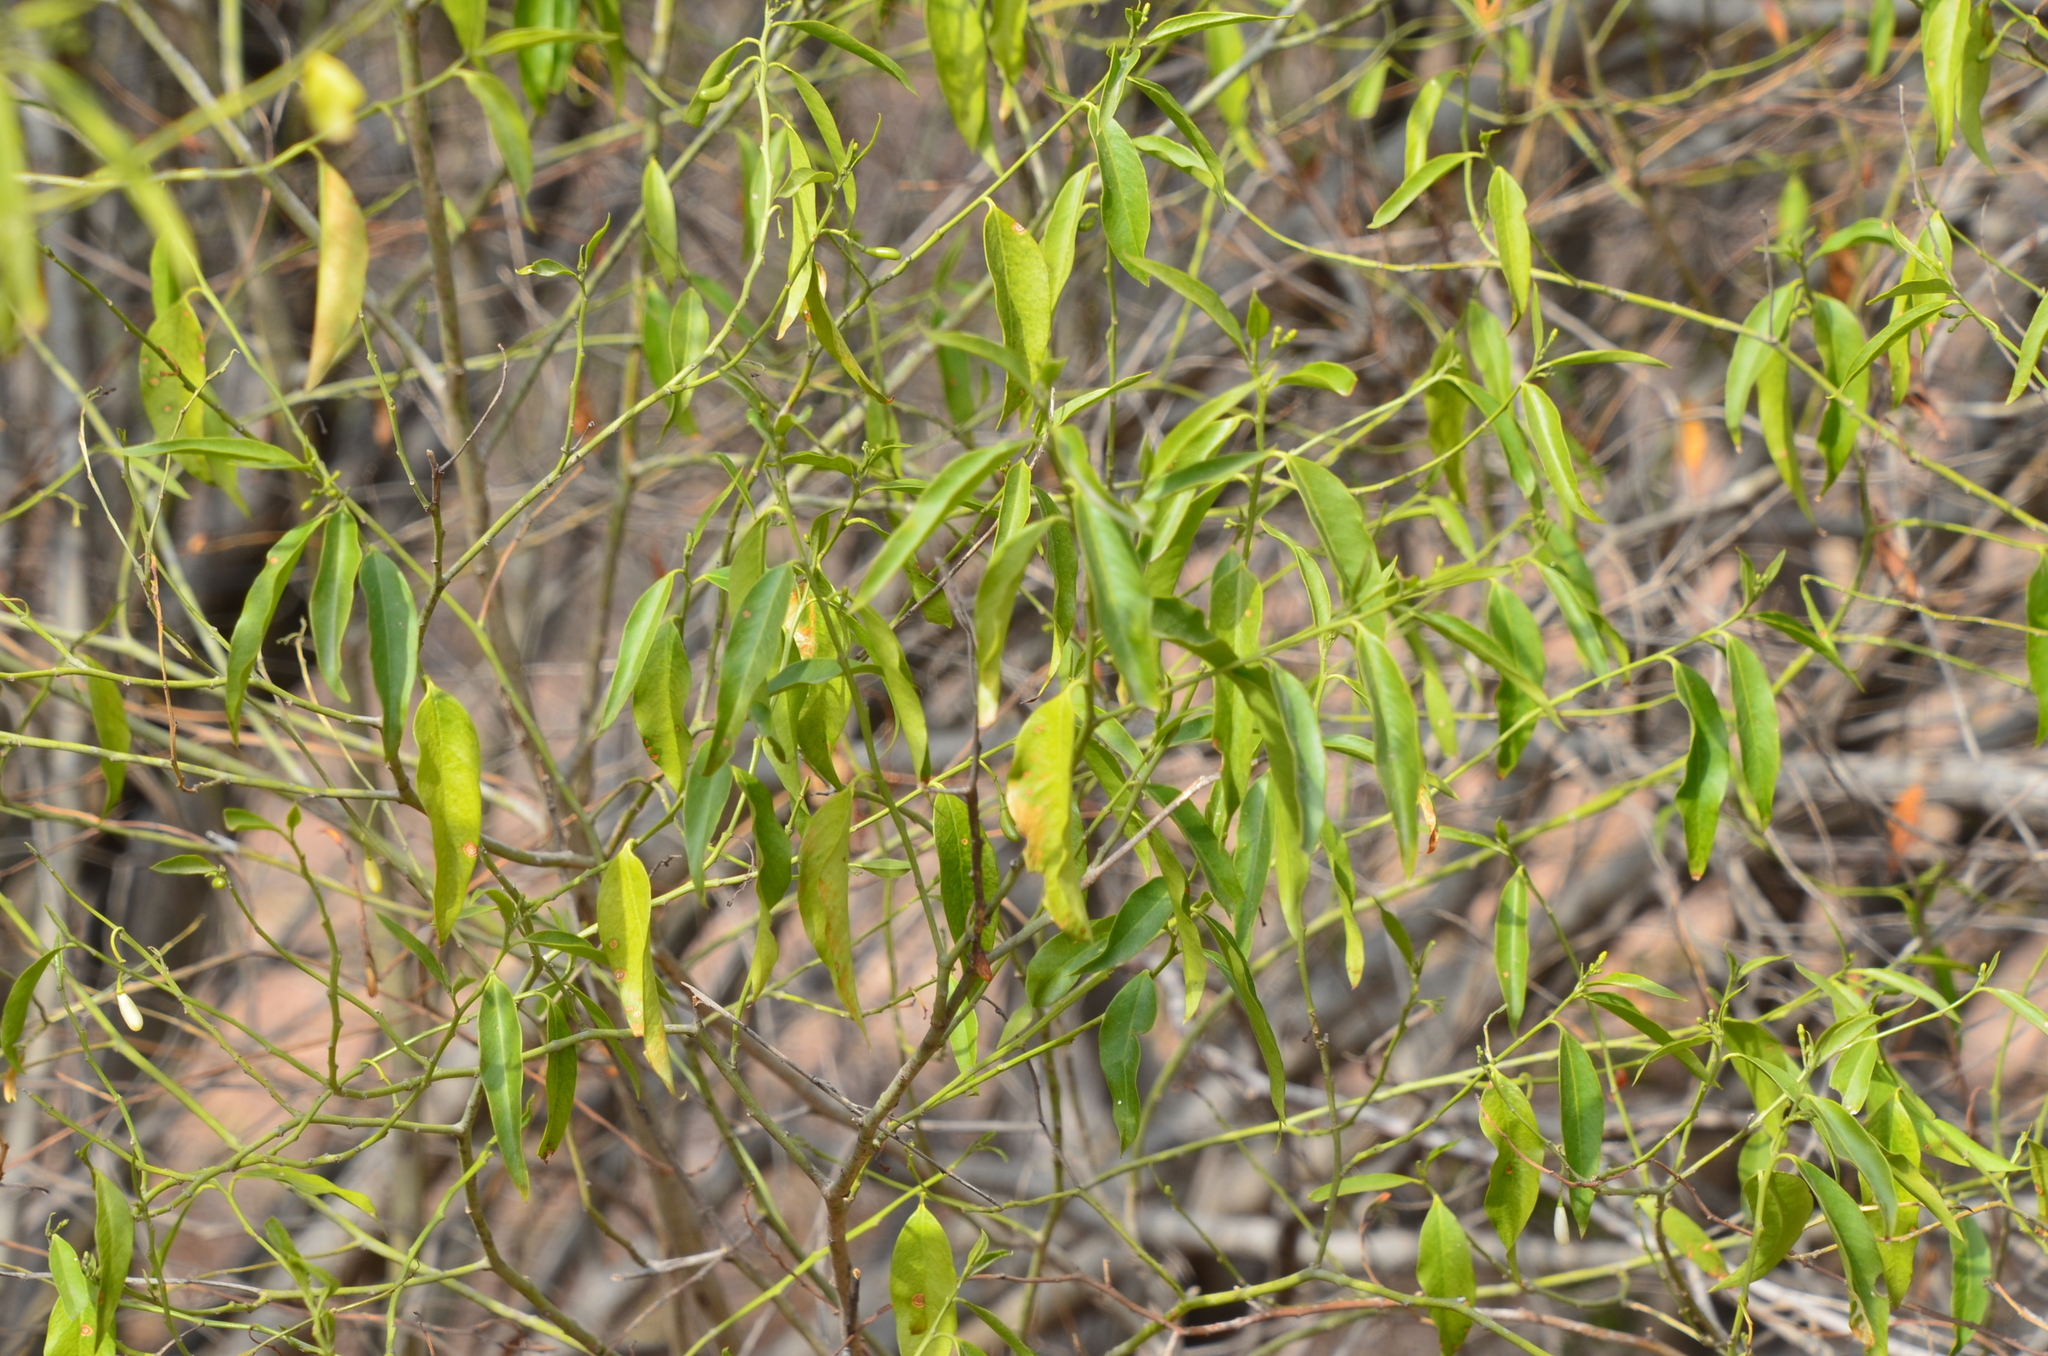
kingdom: Plantae
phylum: Tracheophyta
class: Magnoliopsida
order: Gentianales
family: Apocynaceae
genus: Vallesia
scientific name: Vallesia glabra
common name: Pearlberry
